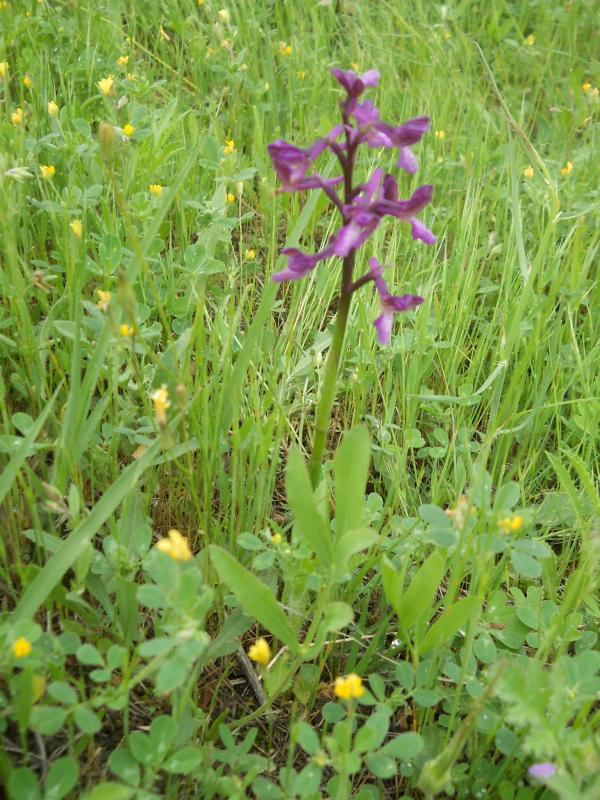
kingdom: Plantae
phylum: Tracheophyta
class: Liliopsida
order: Asparagales
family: Orchidaceae
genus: Anacamptis
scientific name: Anacamptis morio
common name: Green-winged orchid
